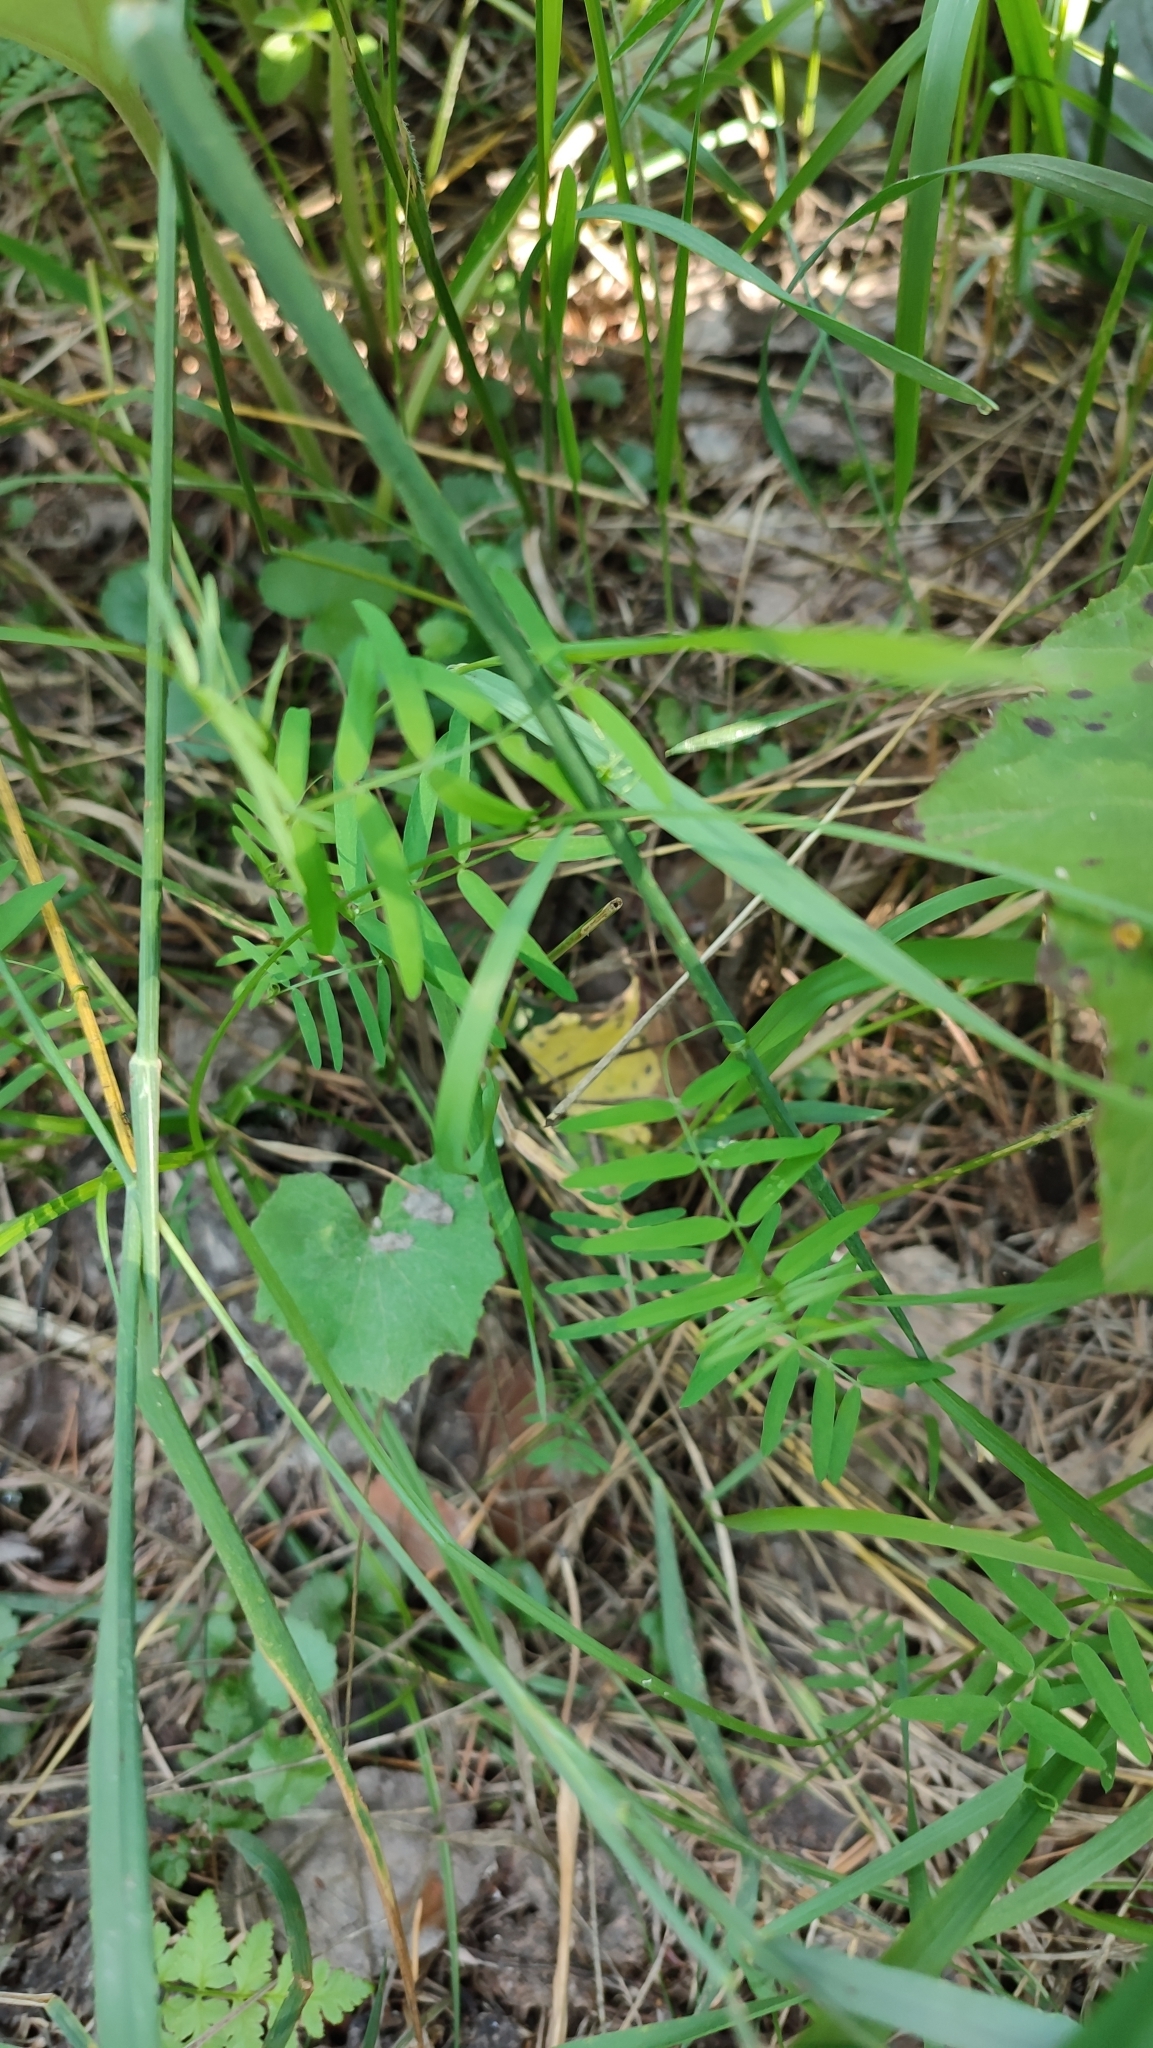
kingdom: Plantae
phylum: Tracheophyta
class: Magnoliopsida
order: Fabales
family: Fabaceae
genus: Vicia
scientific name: Vicia cracca
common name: Bird vetch
